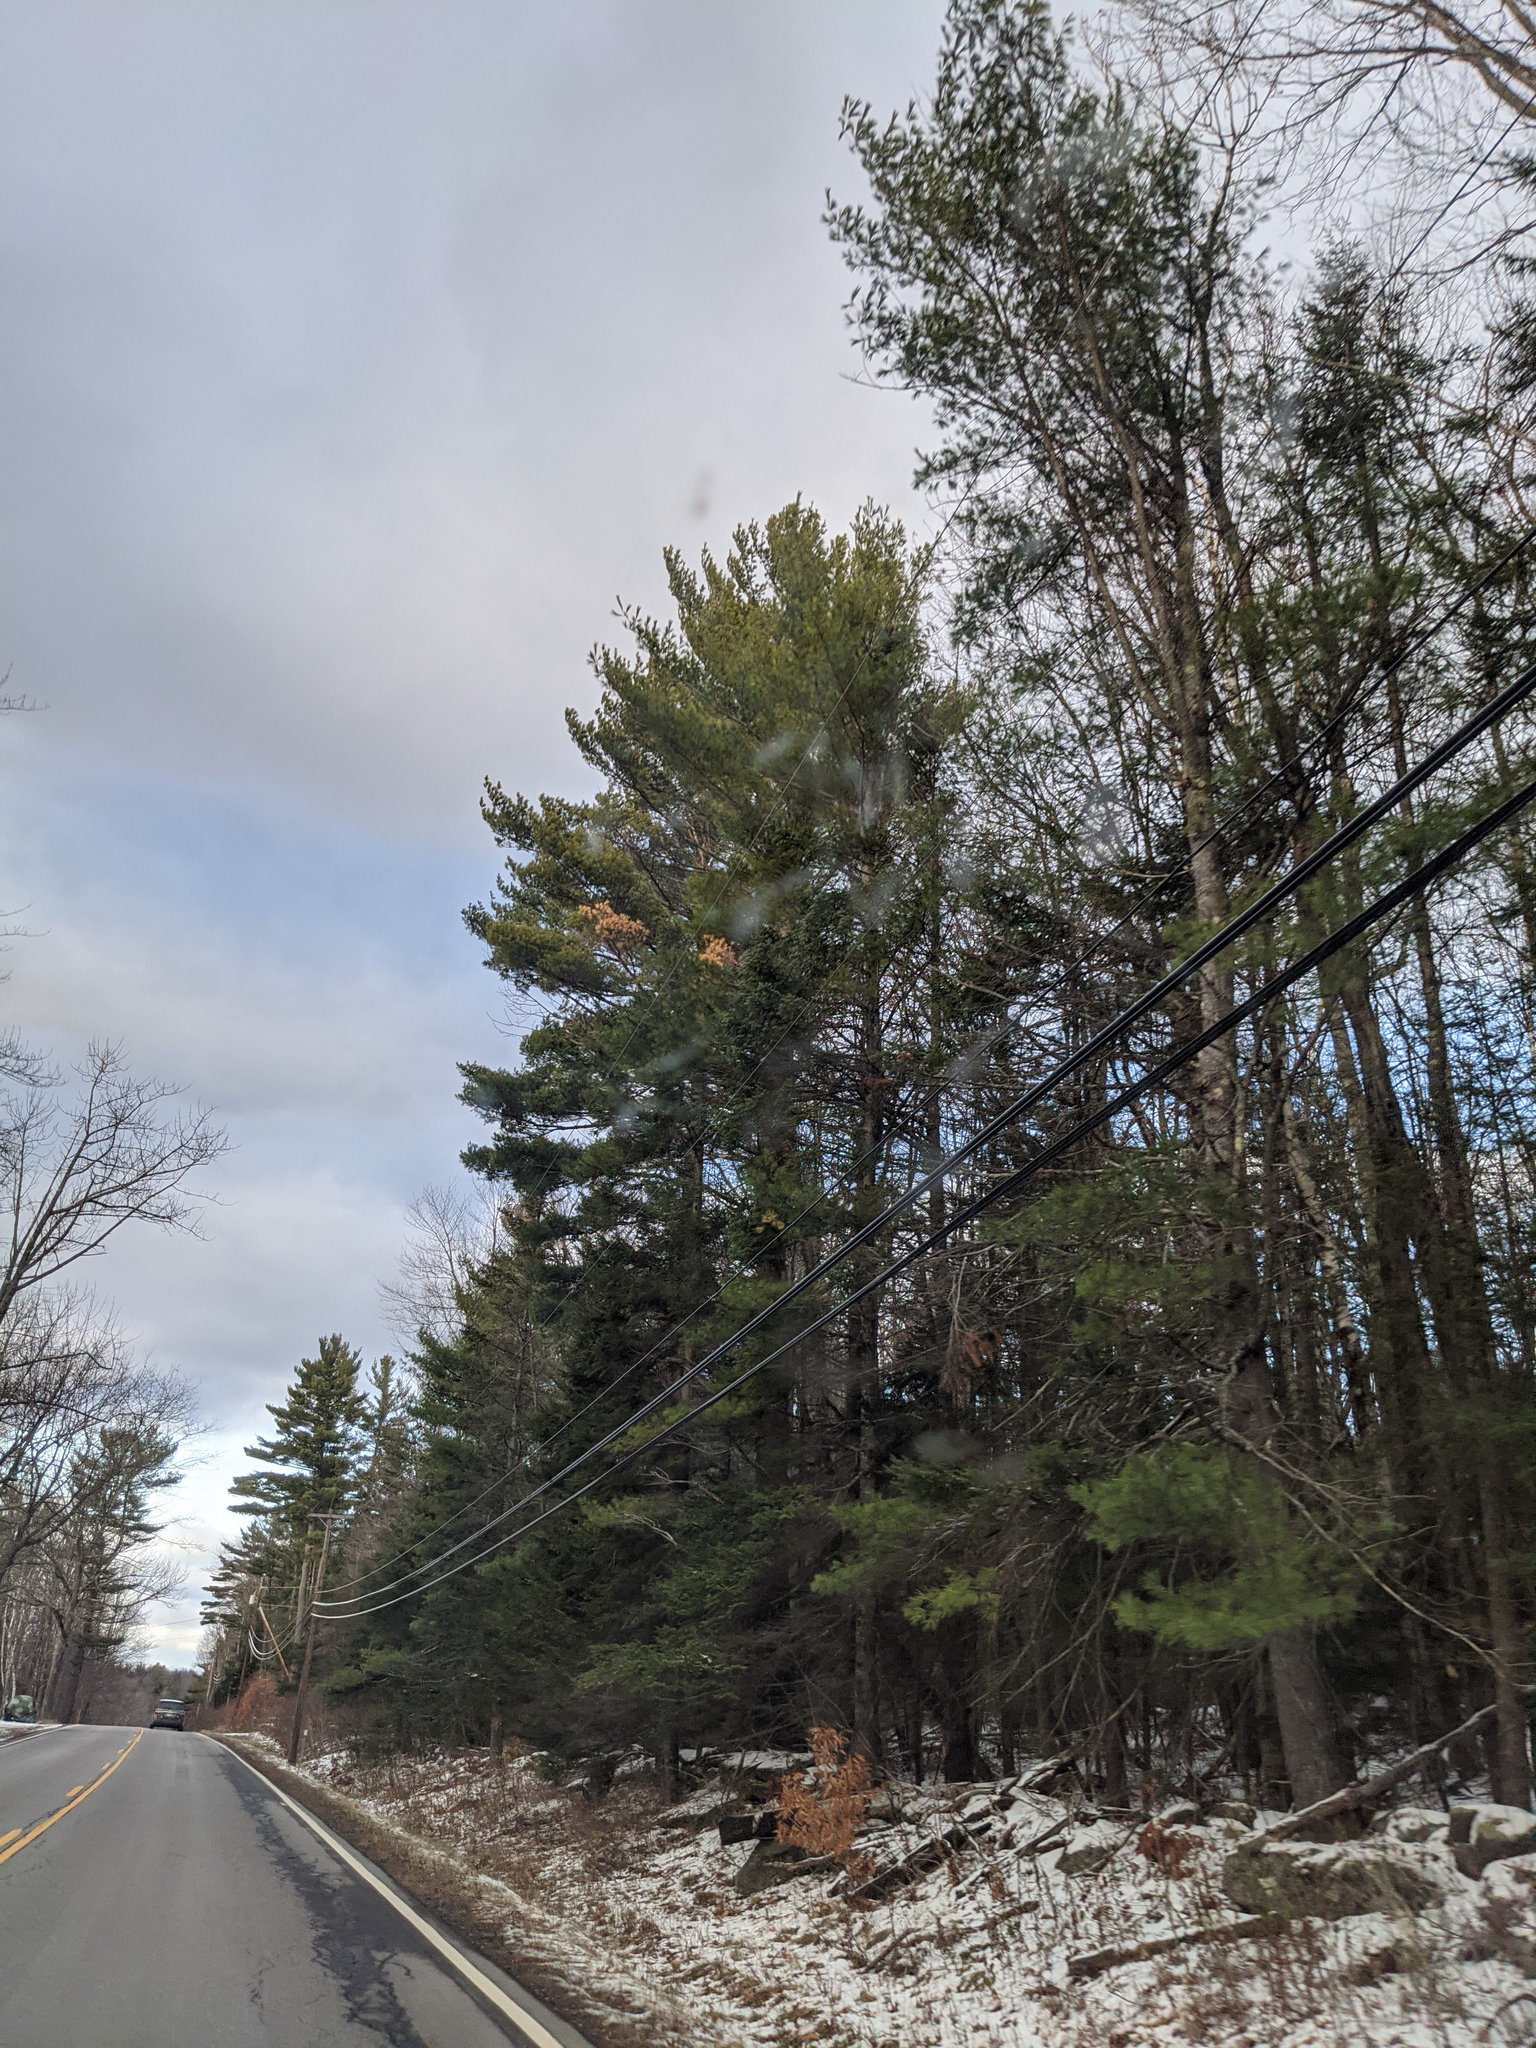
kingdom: Plantae
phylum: Tracheophyta
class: Pinopsida
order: Pinales
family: Pinaceae
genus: Pinus
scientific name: Pinus strobus
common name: Weymouth pine
